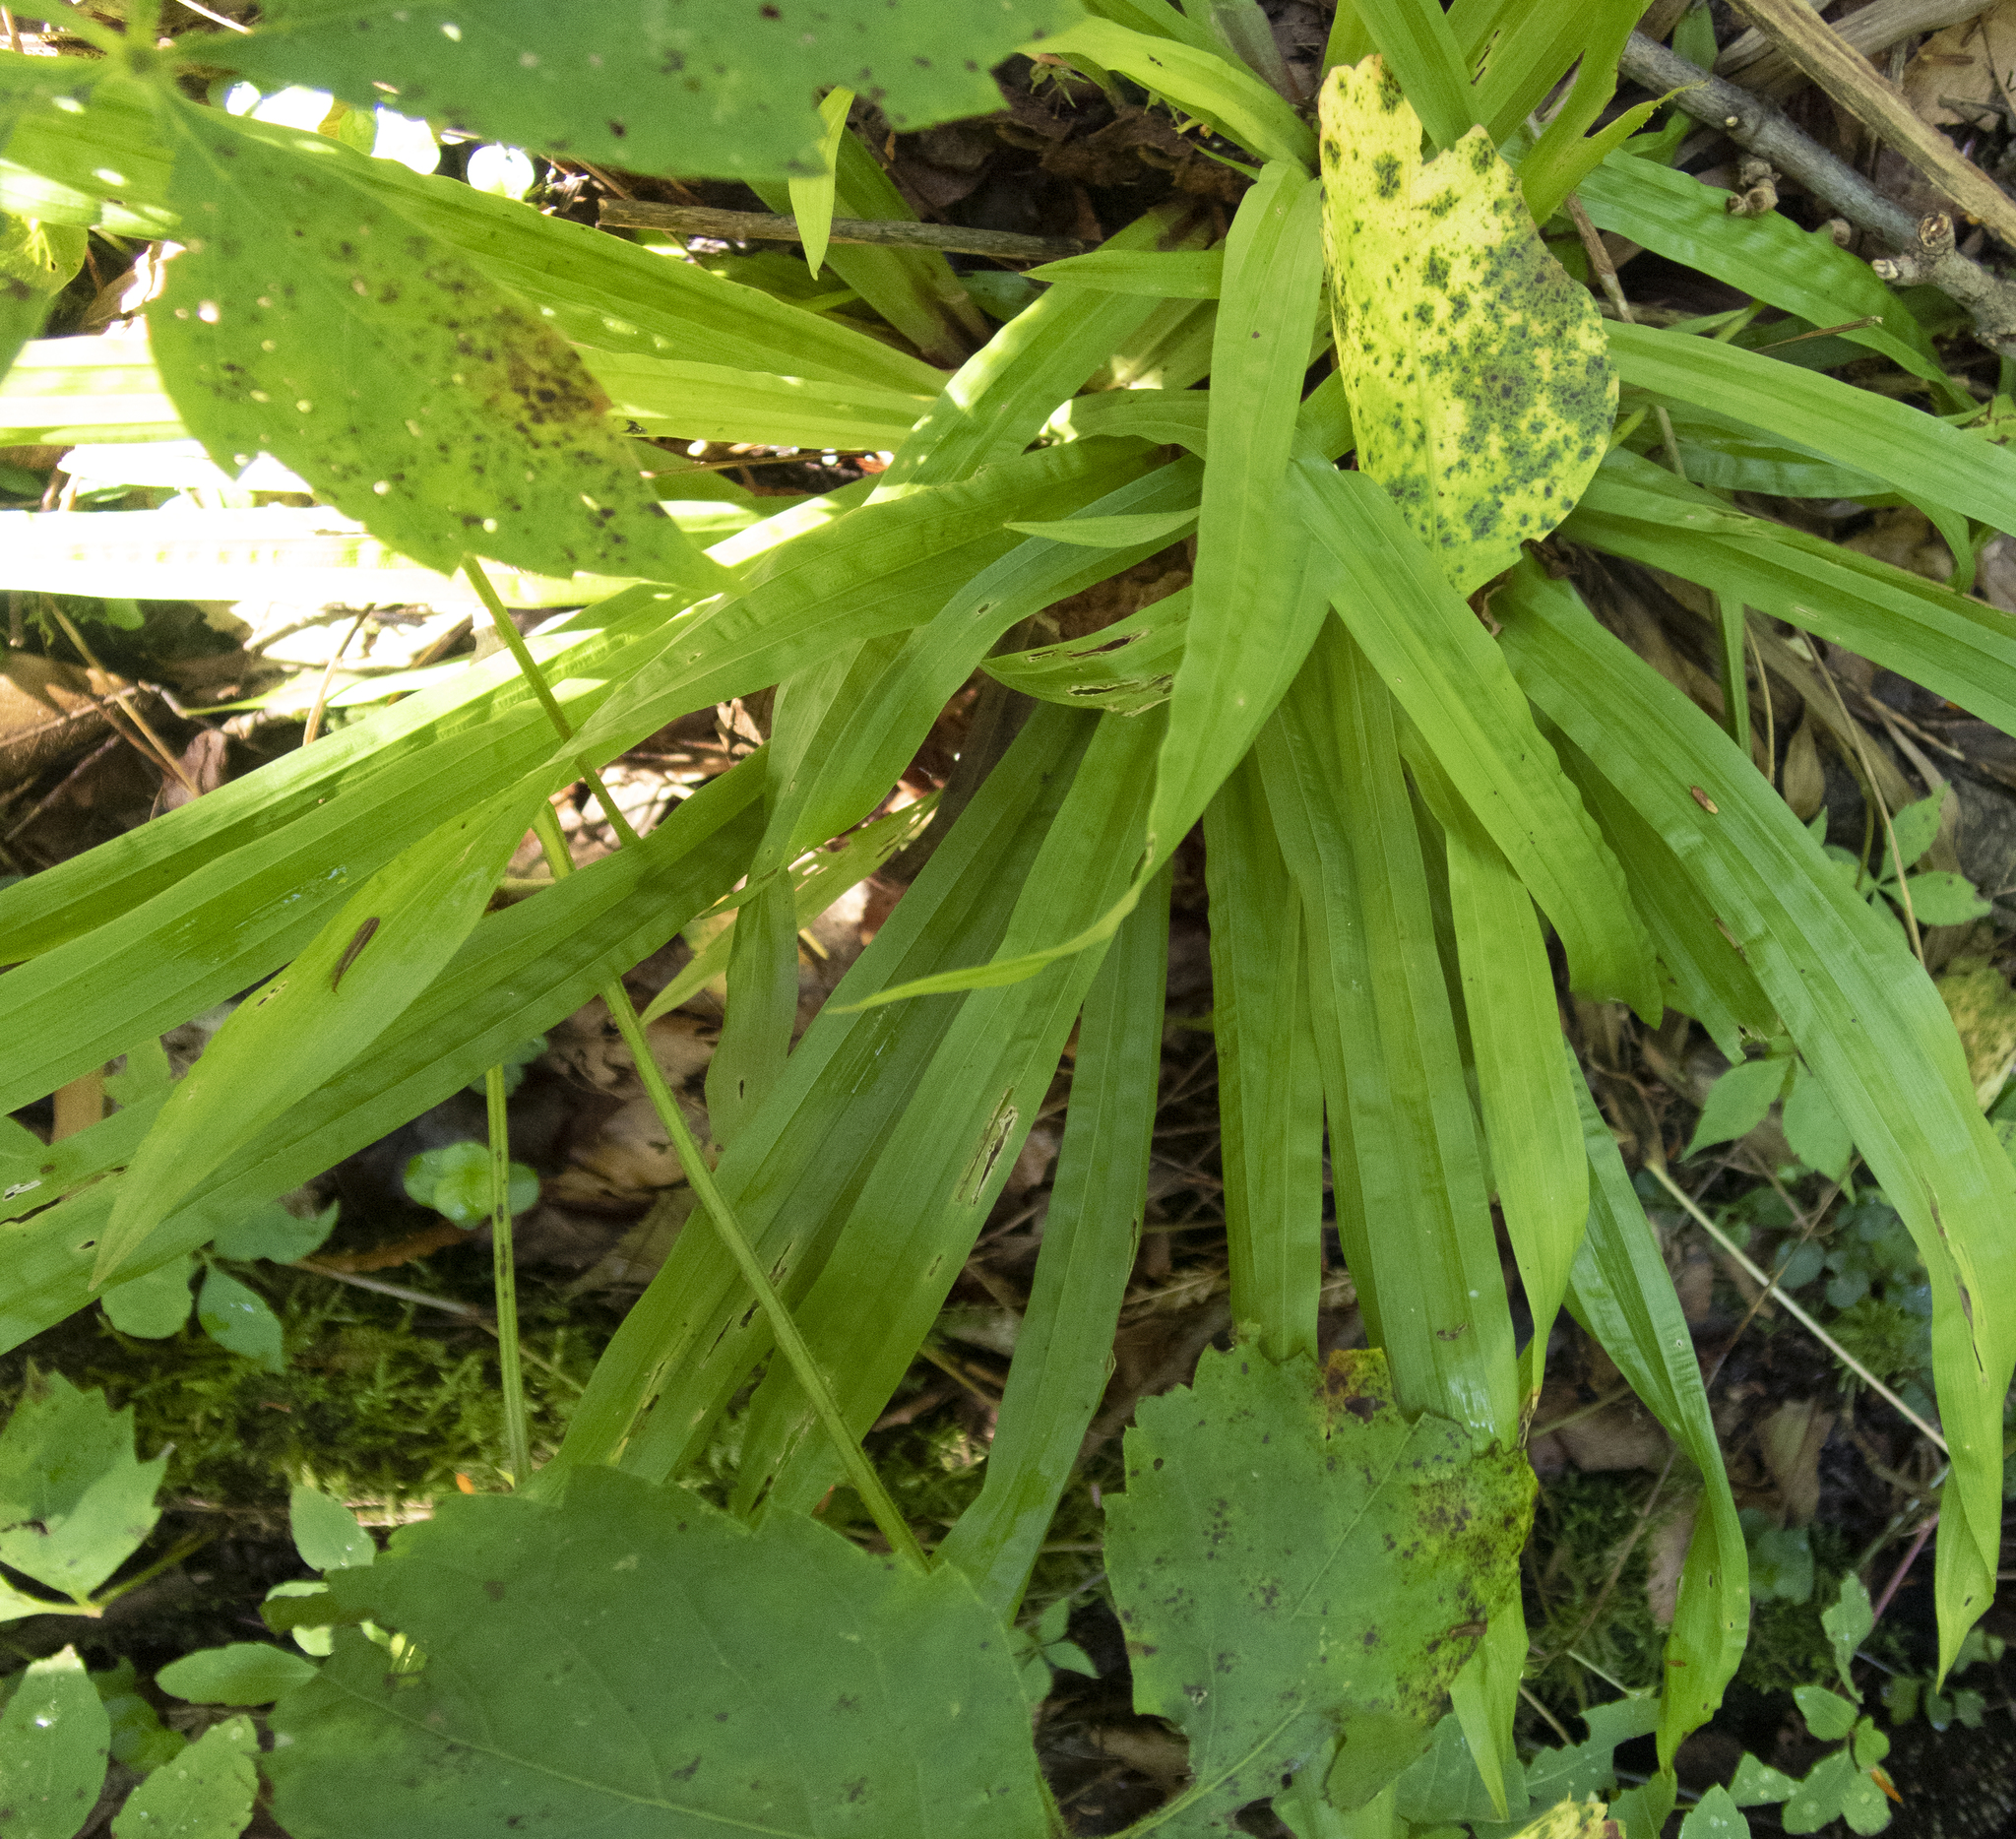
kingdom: Plantae
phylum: Tracheophyta
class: Liliopsida
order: Poales
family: Cyperaceae
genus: Carex
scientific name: Carex plantaginea
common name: Plantain-leaved sedge
